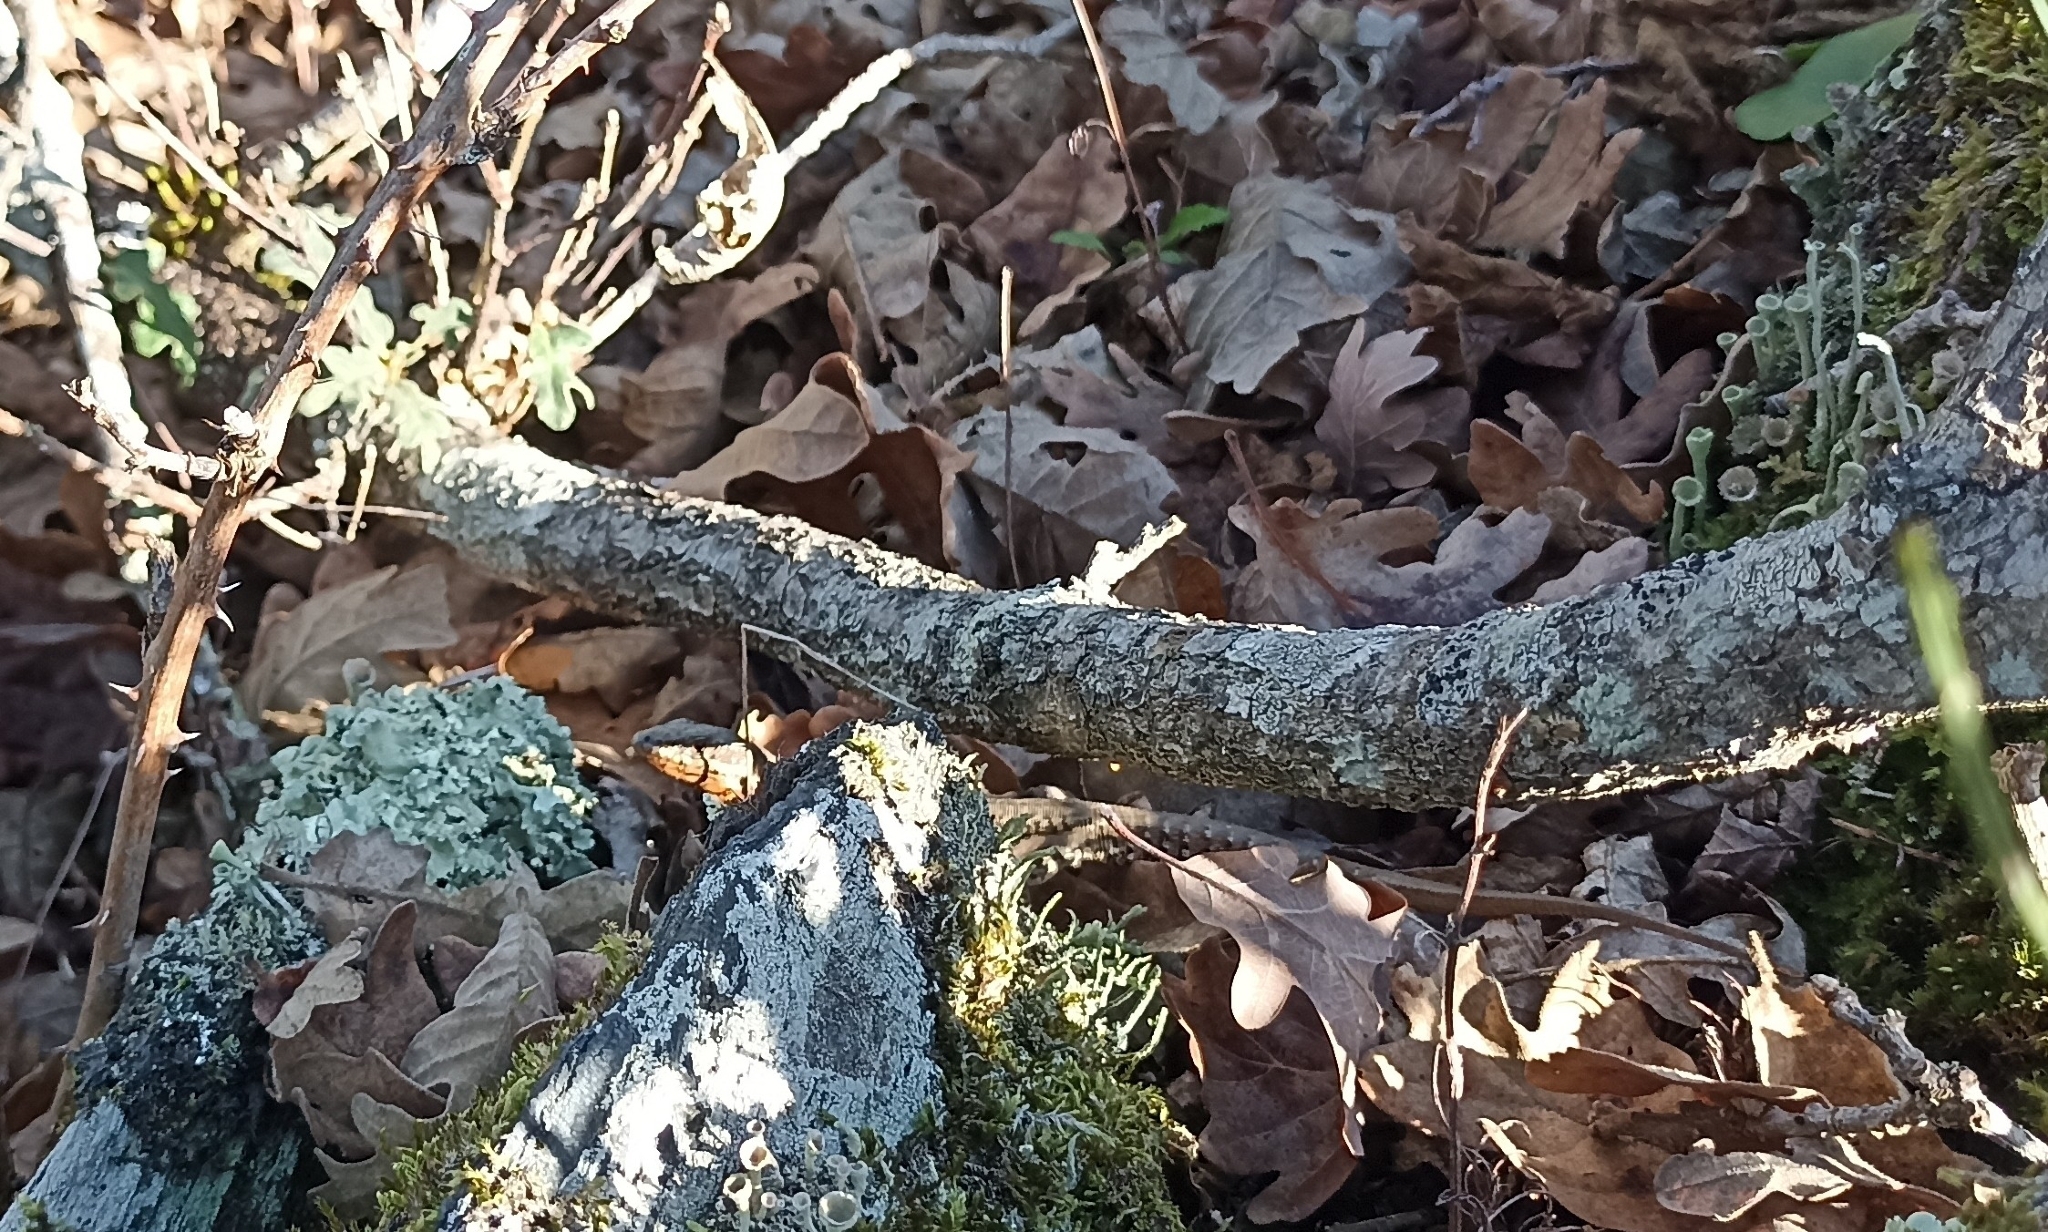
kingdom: Animalia
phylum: Chordata
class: Squamata
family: Lacertidae
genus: Podarcis
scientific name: Podarcis muralis
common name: Common wall lizard
